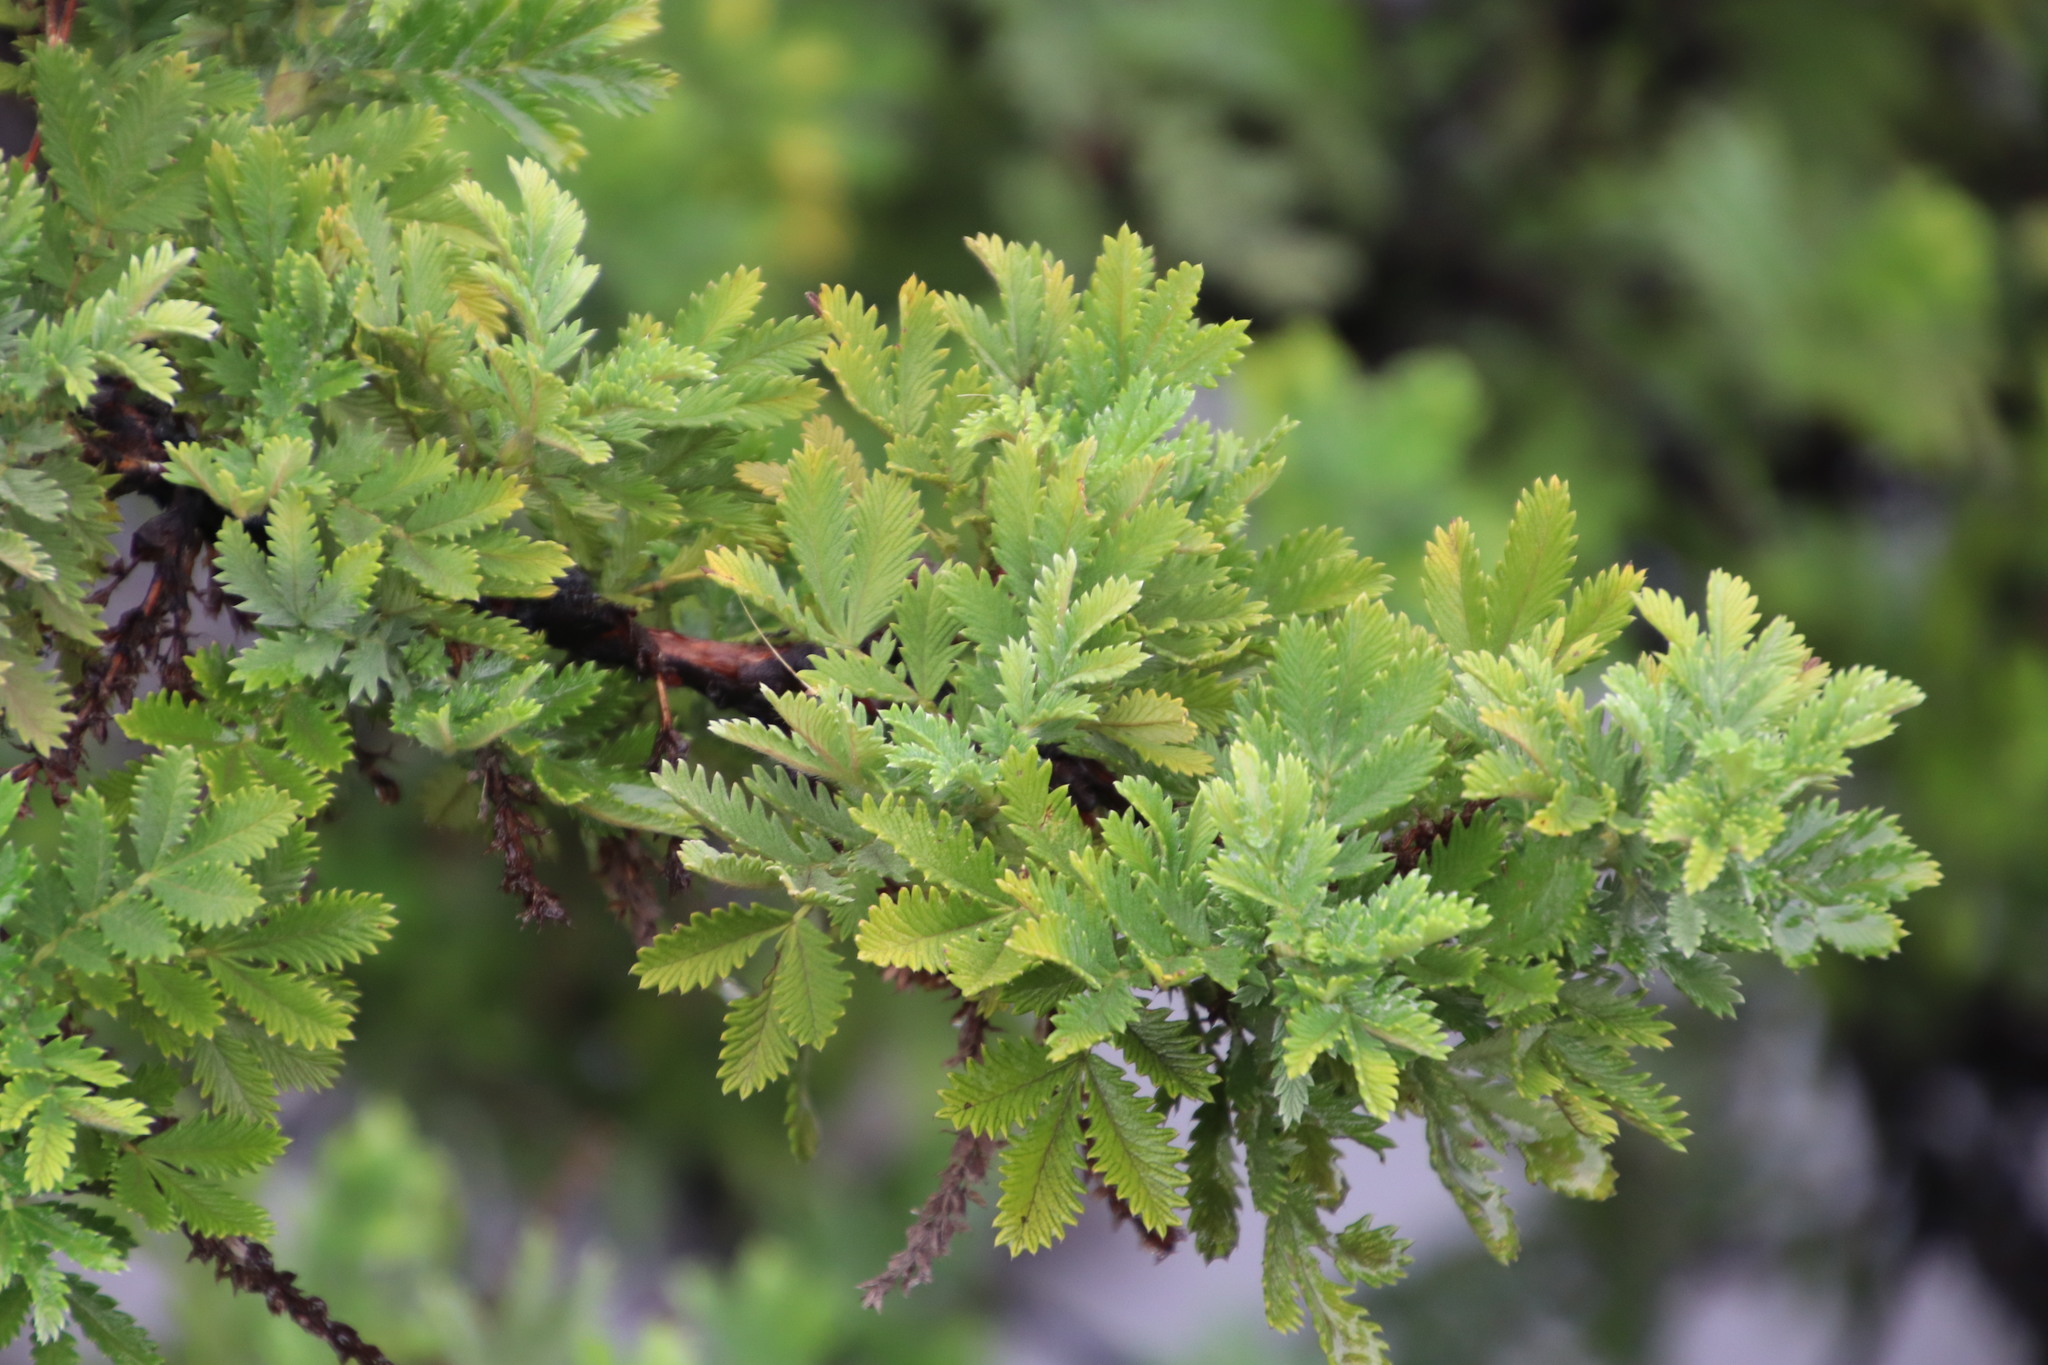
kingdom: Plantae
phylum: Tracheophyta
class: Magnoliopsida
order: Rosales
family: Rosaceae
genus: Leucosidea
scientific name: Leucosidea sericea
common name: Oldwood
